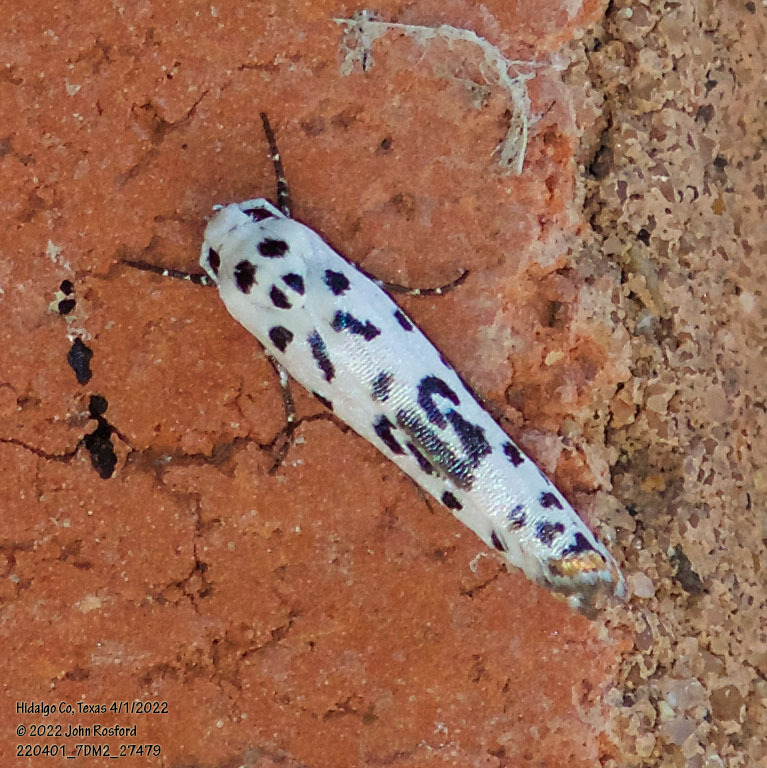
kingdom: Animalia
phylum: Arthropoda
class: Insecta
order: Lepidoptera
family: Ethmiidae
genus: Ethmia
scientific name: Ethmia bittenella
